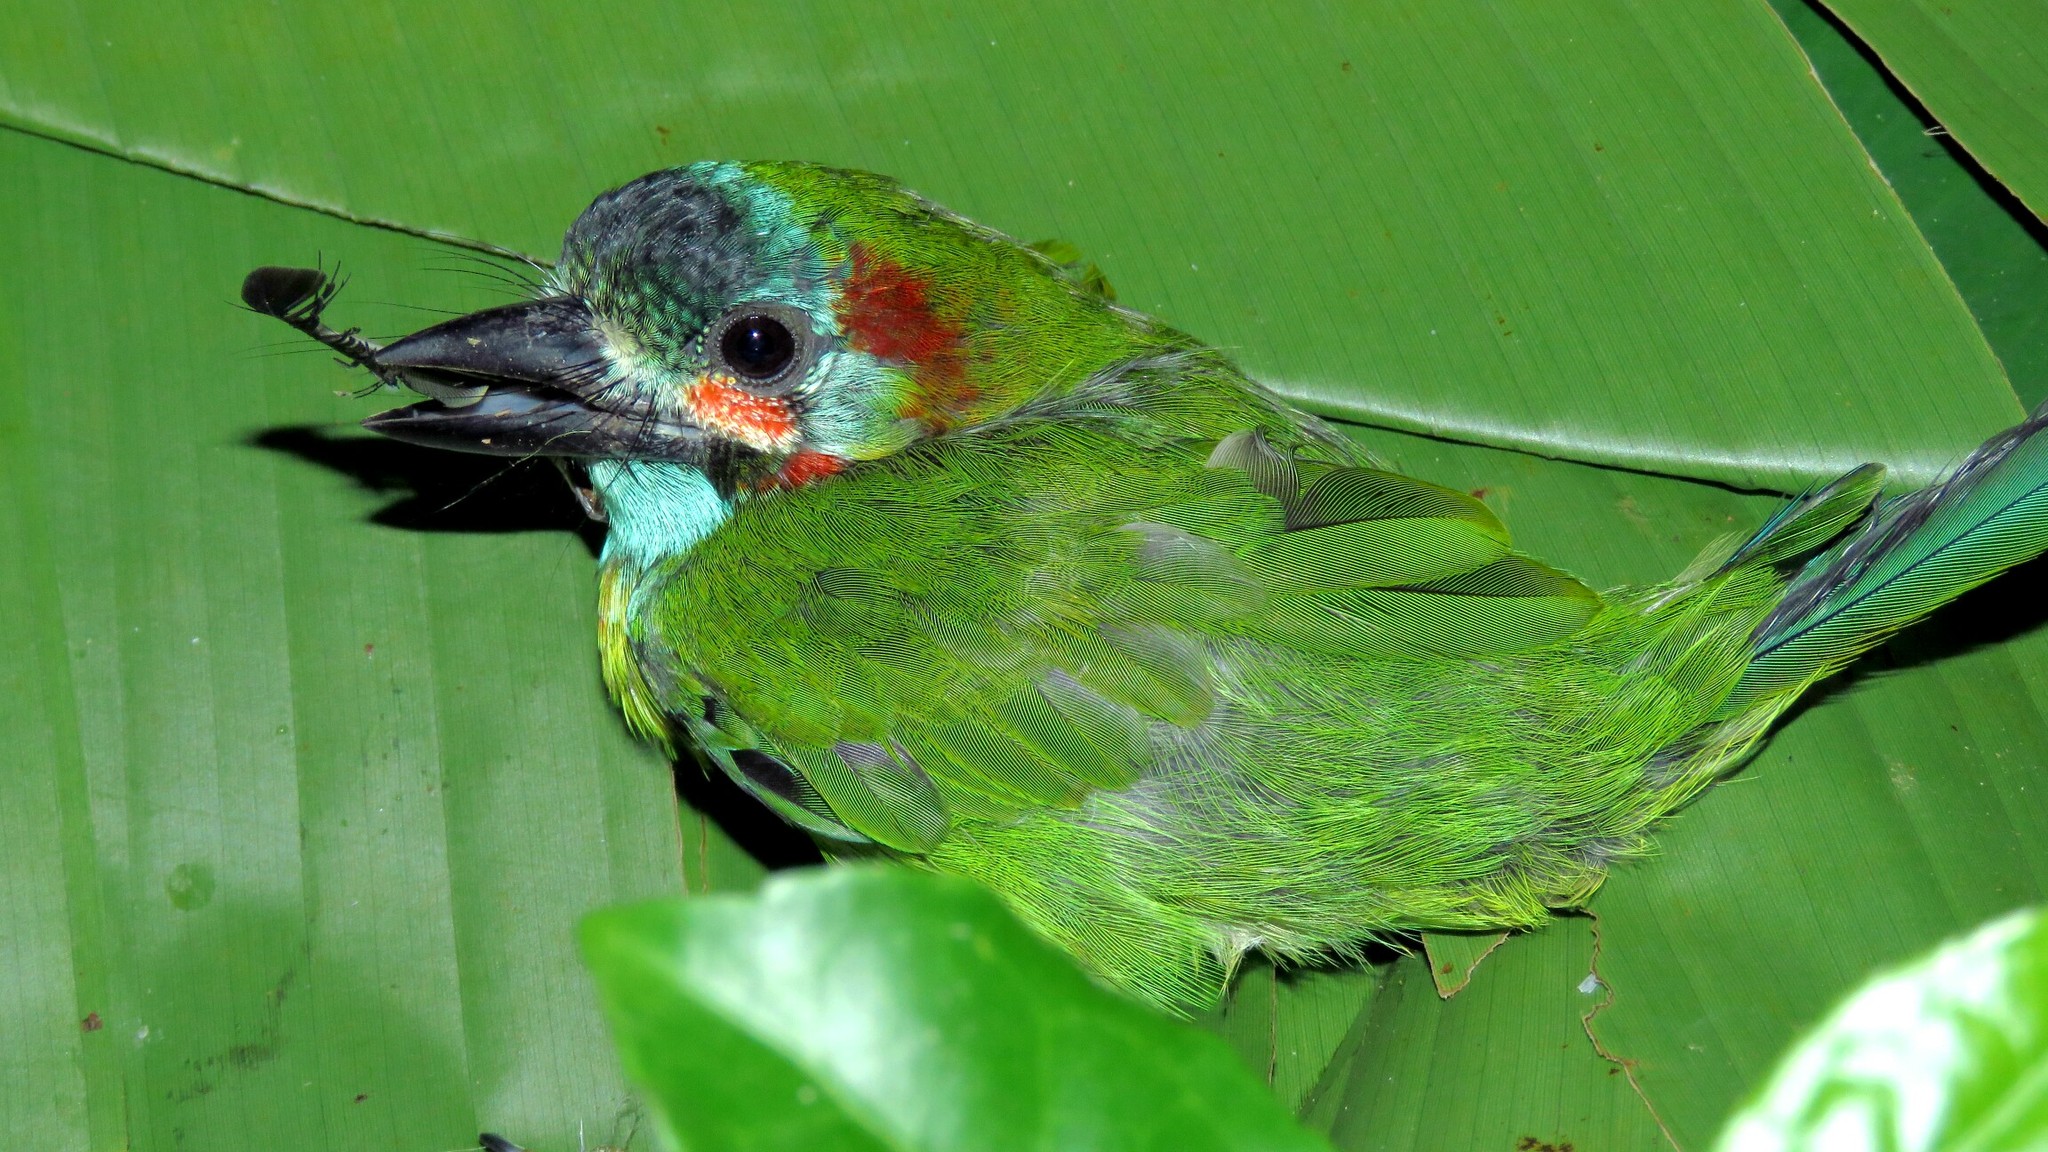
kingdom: Animalia
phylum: Chordata
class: Aves
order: Piciformes
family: Megalaimidae
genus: Psilopogon
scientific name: Psilopogon duvaucelii
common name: Blue-eared barbet
